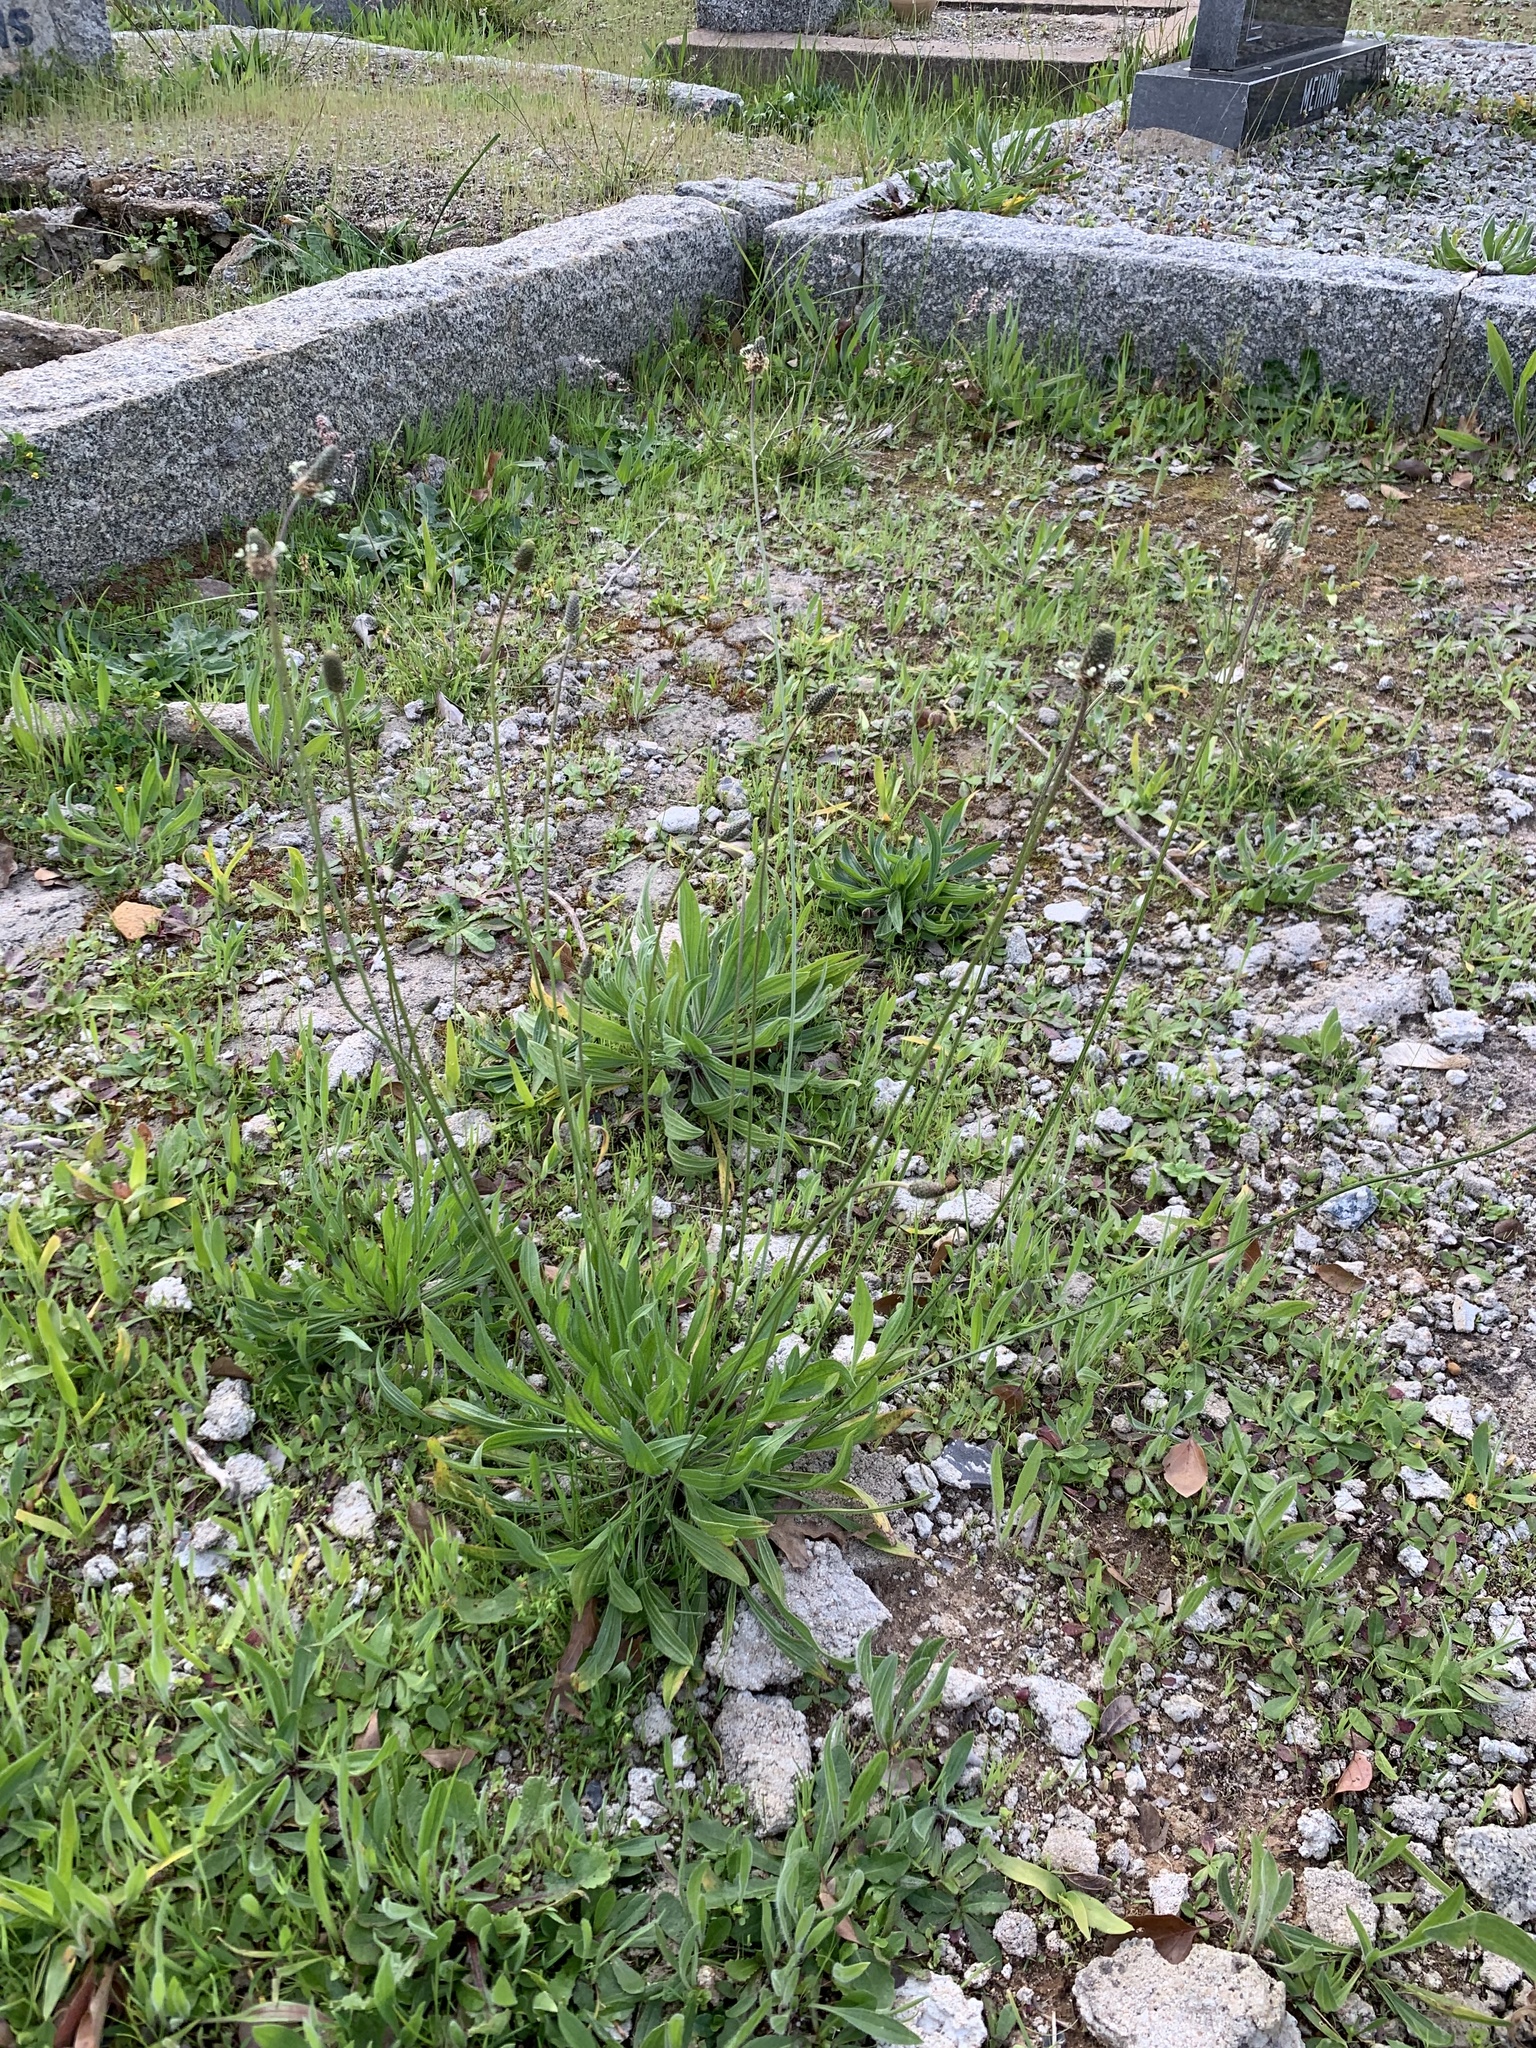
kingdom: Plantae
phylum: Tracheophyta
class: Magnoliopsida
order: Lamiales
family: Plantaginaceae
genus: Plantago
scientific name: Plantago lanceolata
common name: Ribwort plantain
